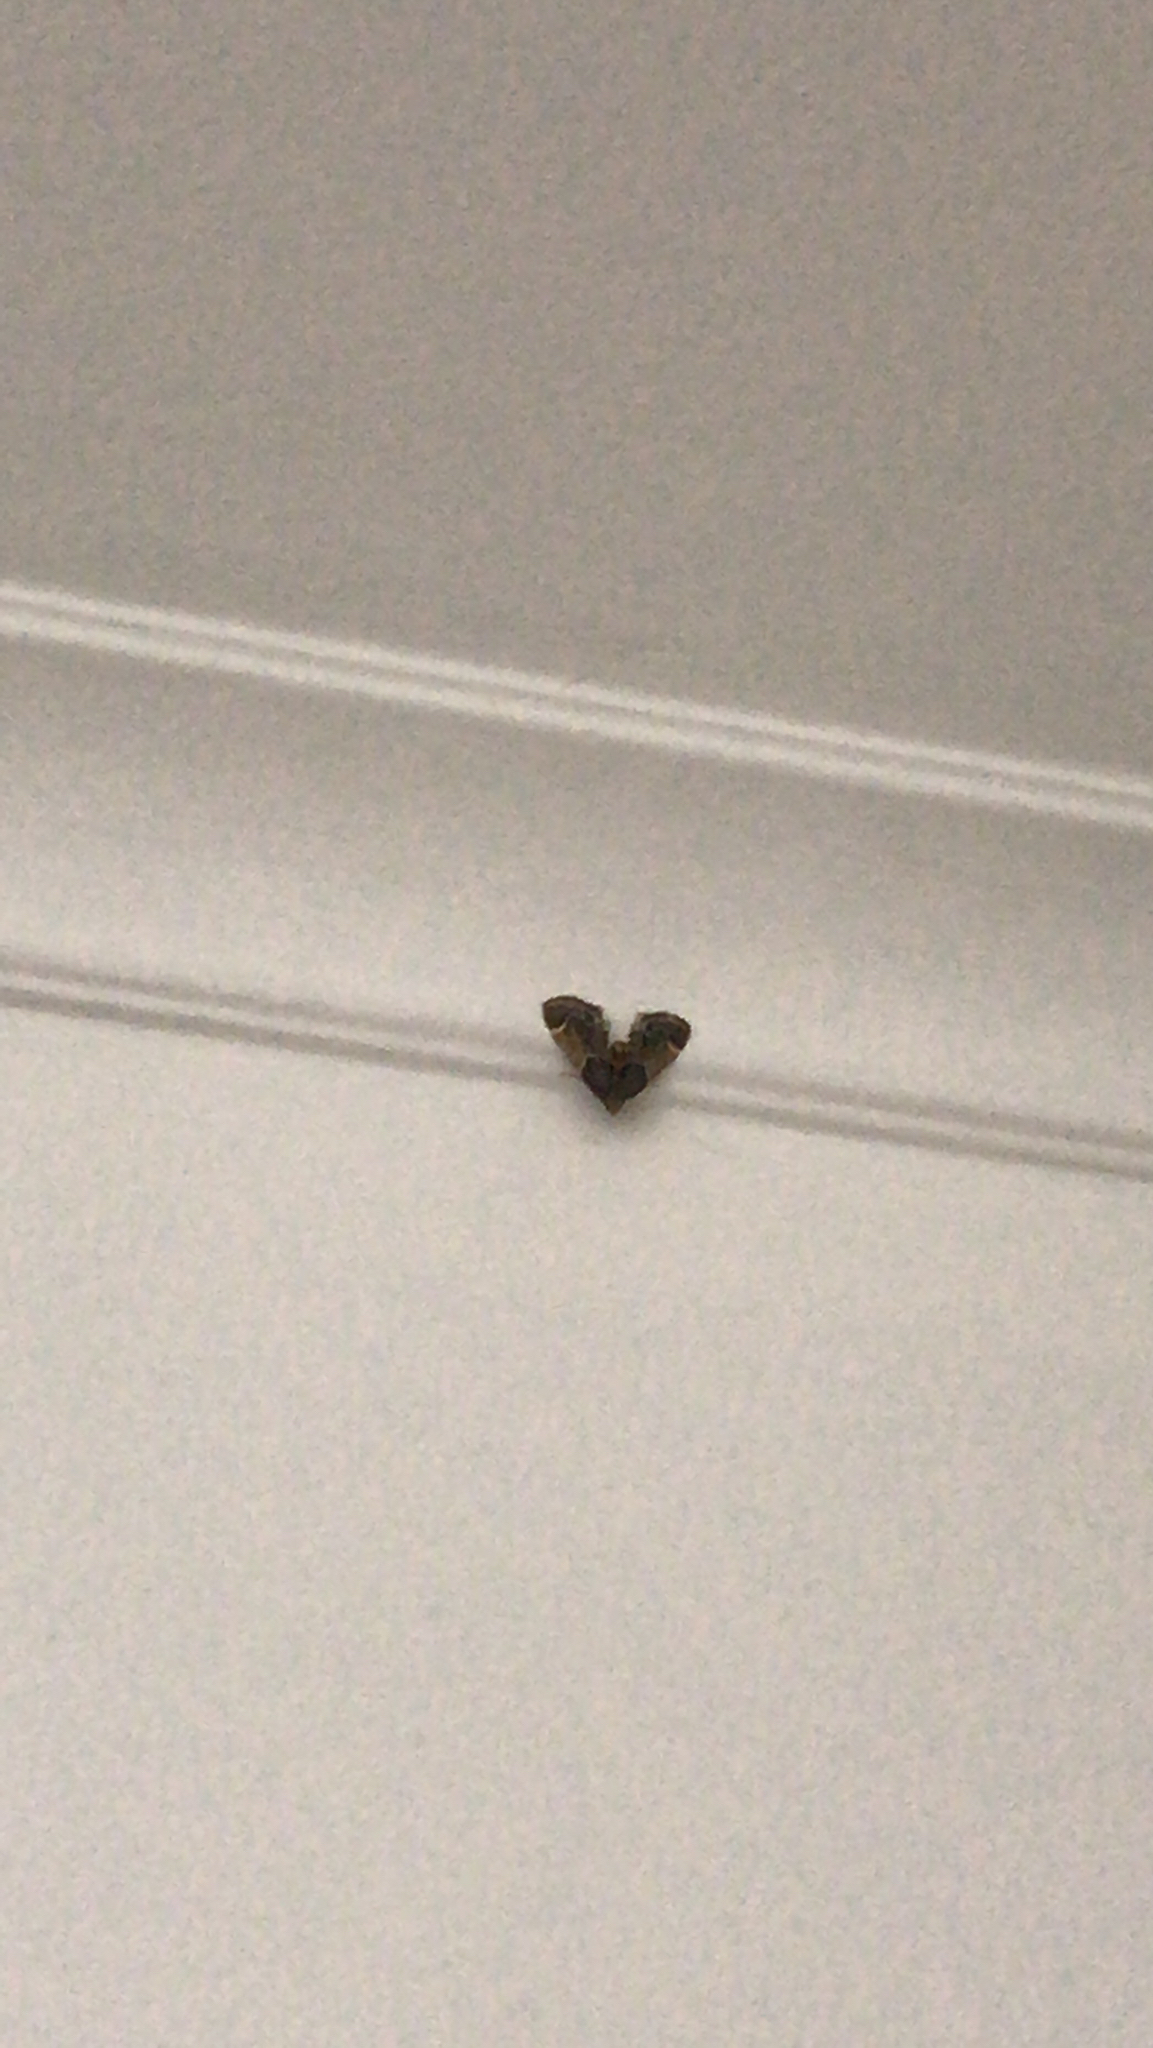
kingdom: Animalia
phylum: Arthropoda
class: Insecta
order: Lepidoptera
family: Pyralidae
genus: Pyralis
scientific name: Pyralis farinalis
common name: Meal moth
